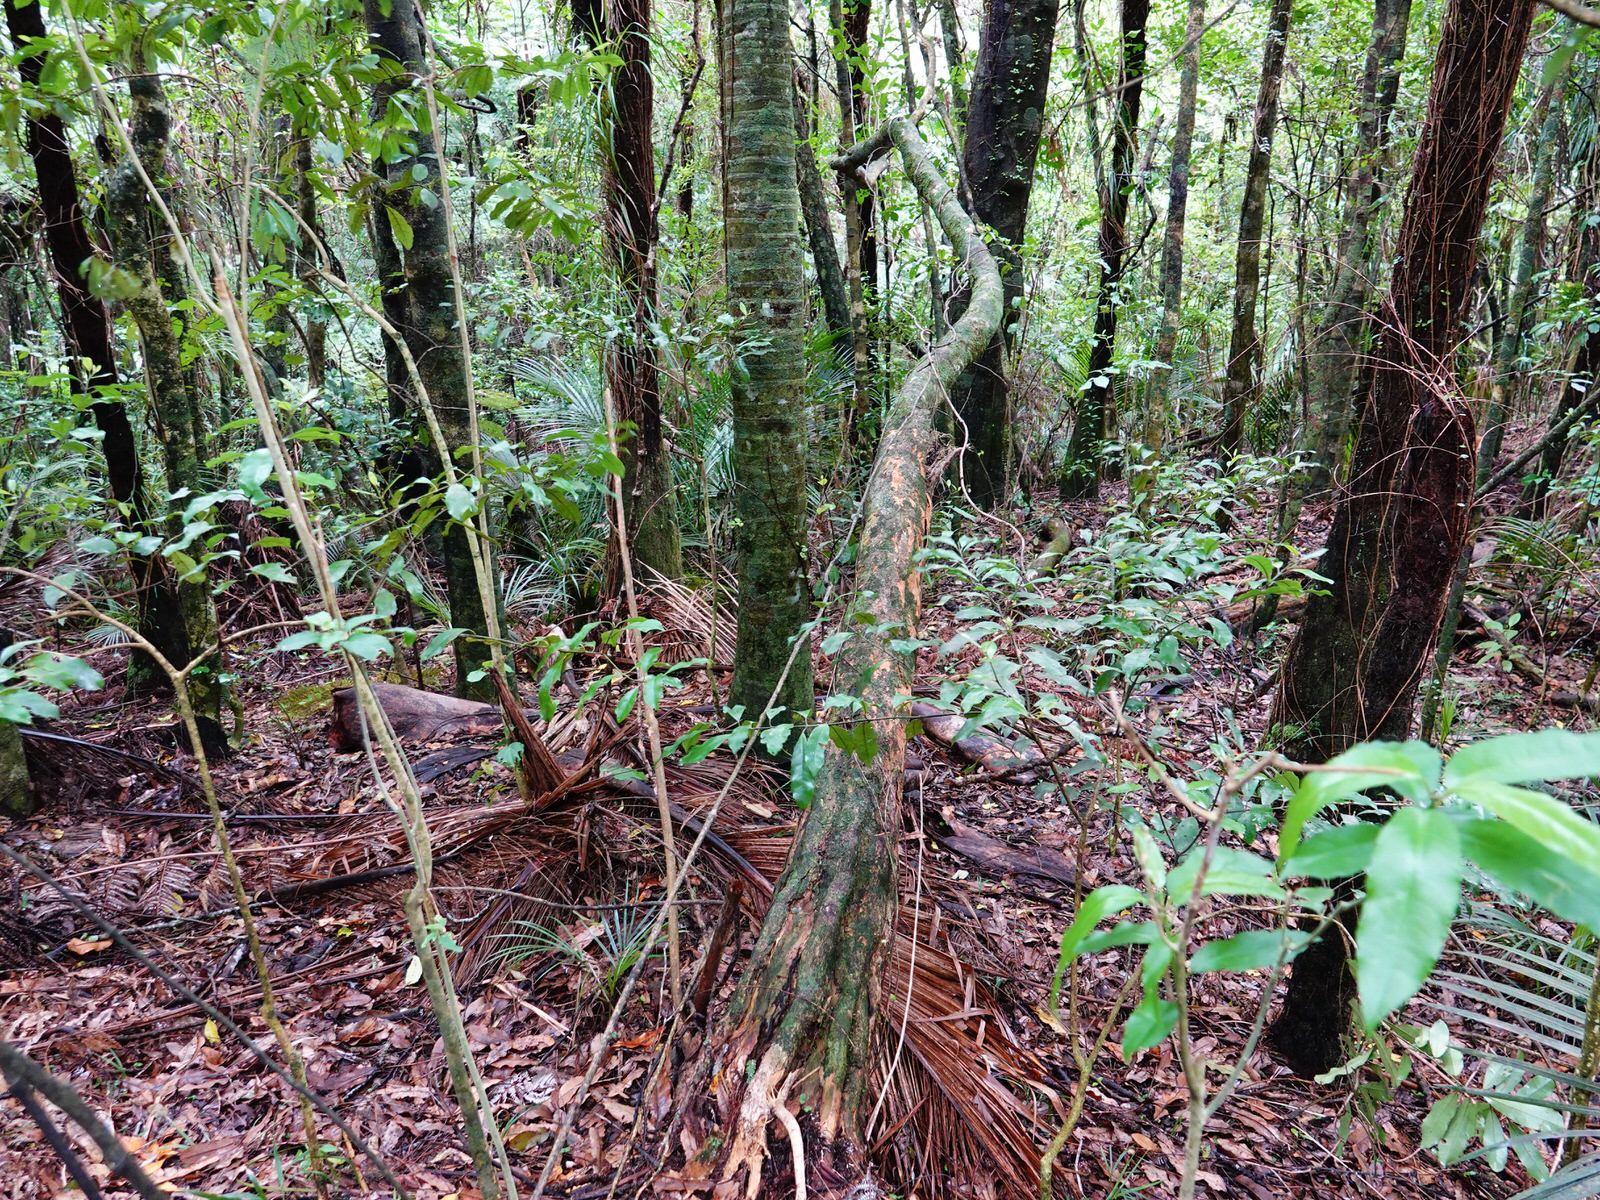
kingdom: Plantae
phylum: Tracheophyta
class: Magnoliopsida
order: Malpighiales
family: Violaceae
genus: Melicytus
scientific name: Melicytus ramiflorus
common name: Mahoe
